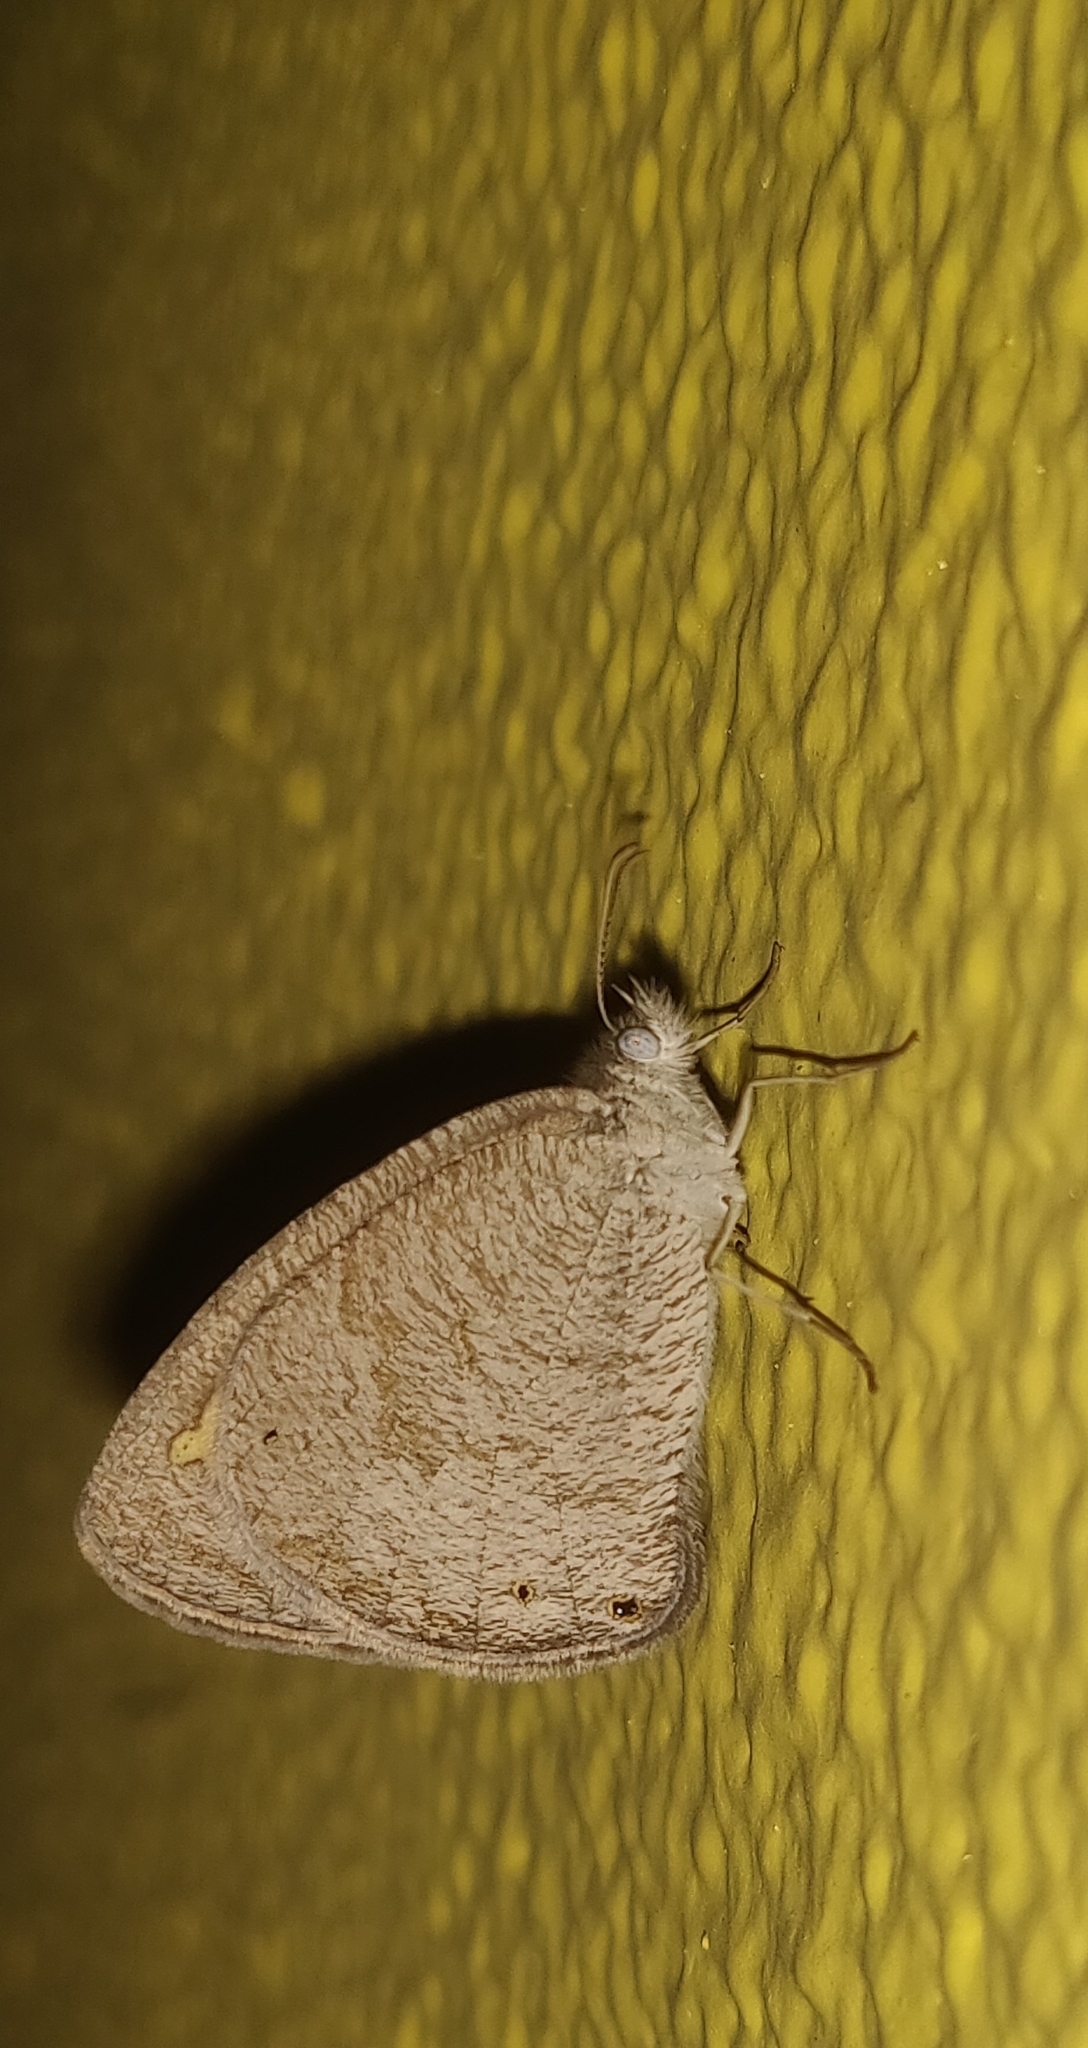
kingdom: Animalia
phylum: Arthropoda
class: Insecta
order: Lepidoptera
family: Nymphalidae
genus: Ypthima
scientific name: Ypthima asterope
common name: African ringlet
